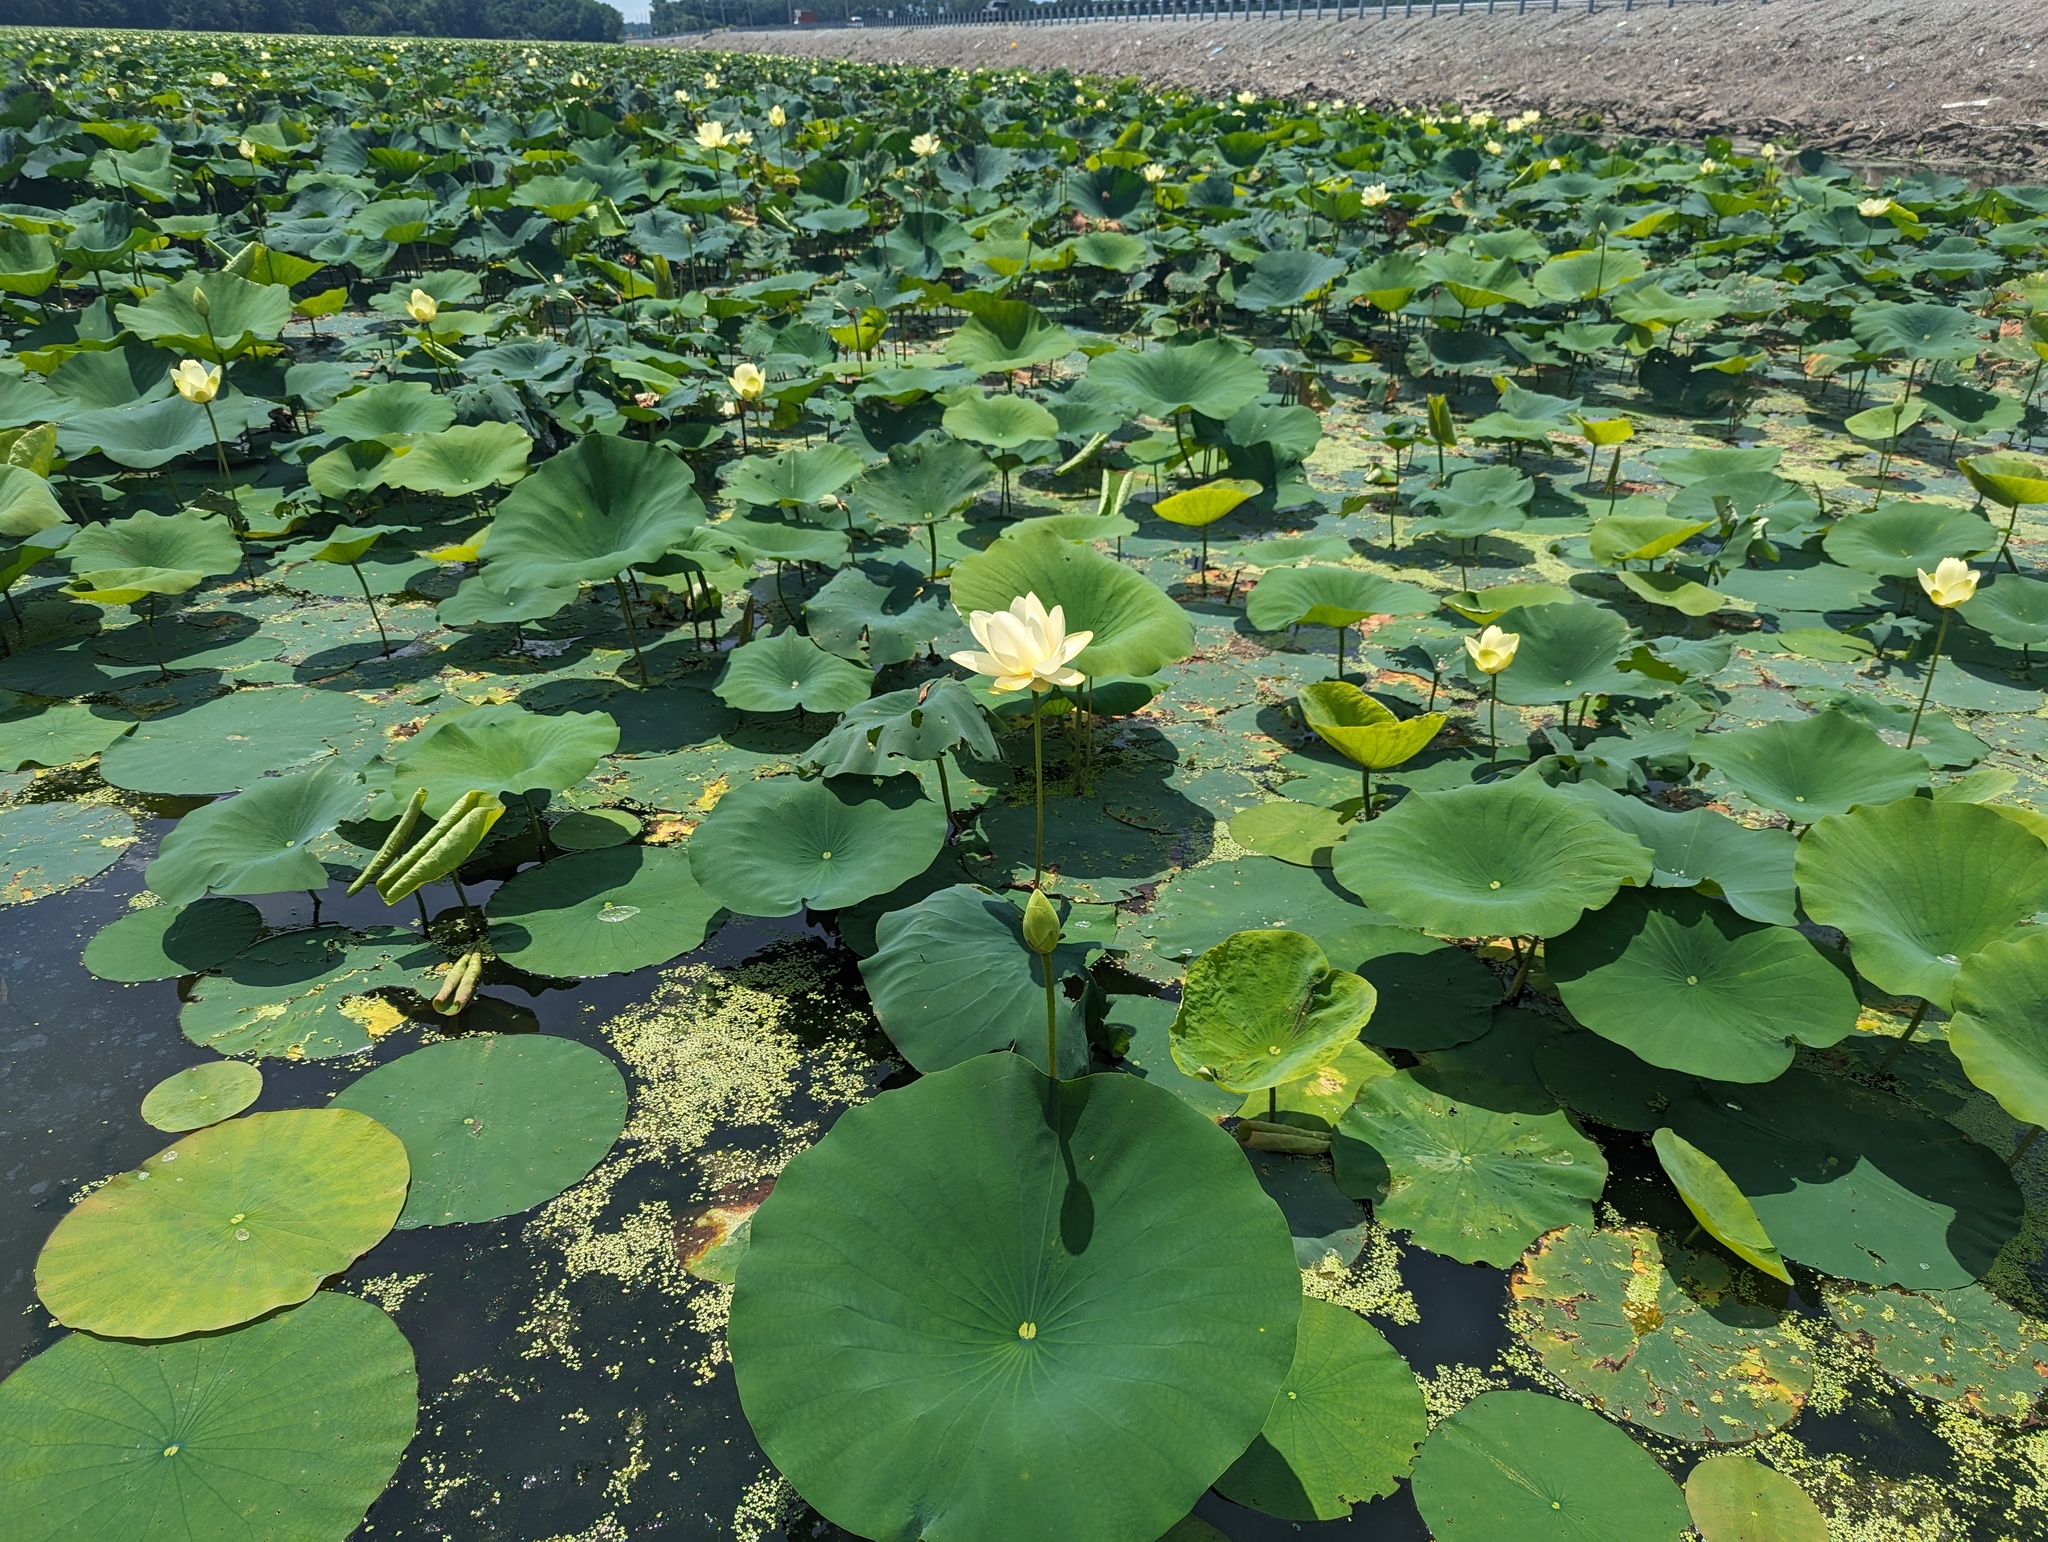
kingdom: Plantae
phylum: Tracheophyta
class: Magnoliopsida
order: Proteales
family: Nelumbonaceae
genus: Nelumbo
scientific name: Nelumbo lutea
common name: American lotus
